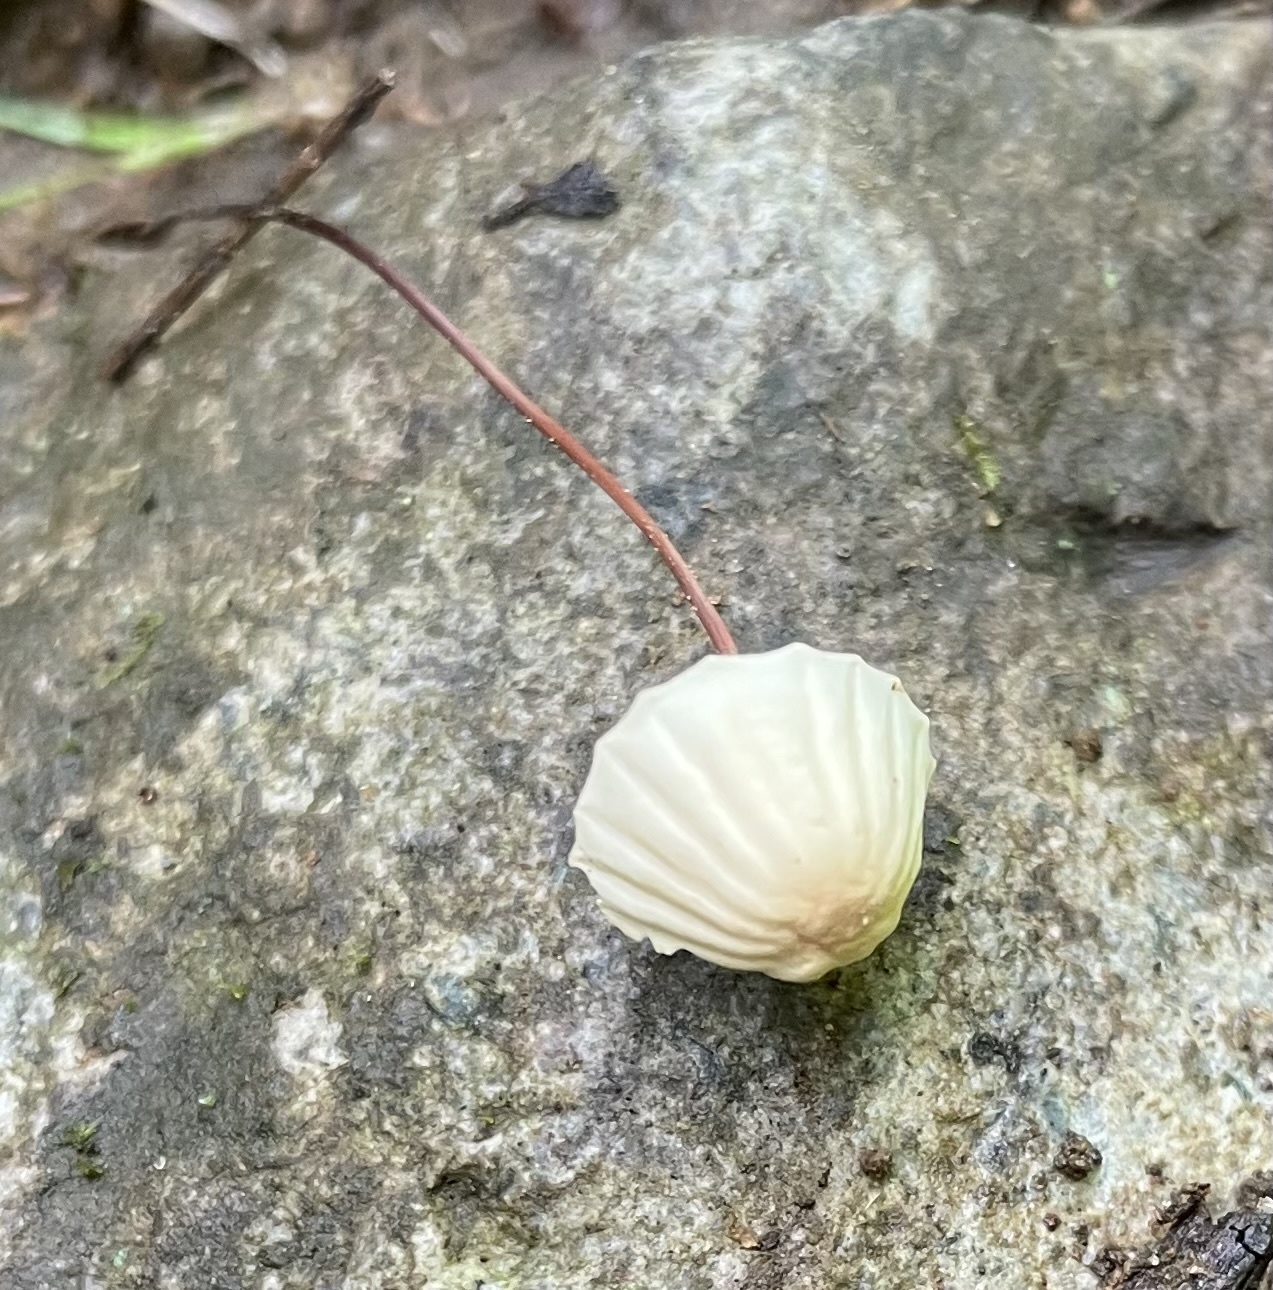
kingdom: Fungi
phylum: Basidiomycota
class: Agaricomycetes
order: Agaricales
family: Marasmiaceae
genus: Marasmius
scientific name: Marasmius rotula
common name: Collared parachute
